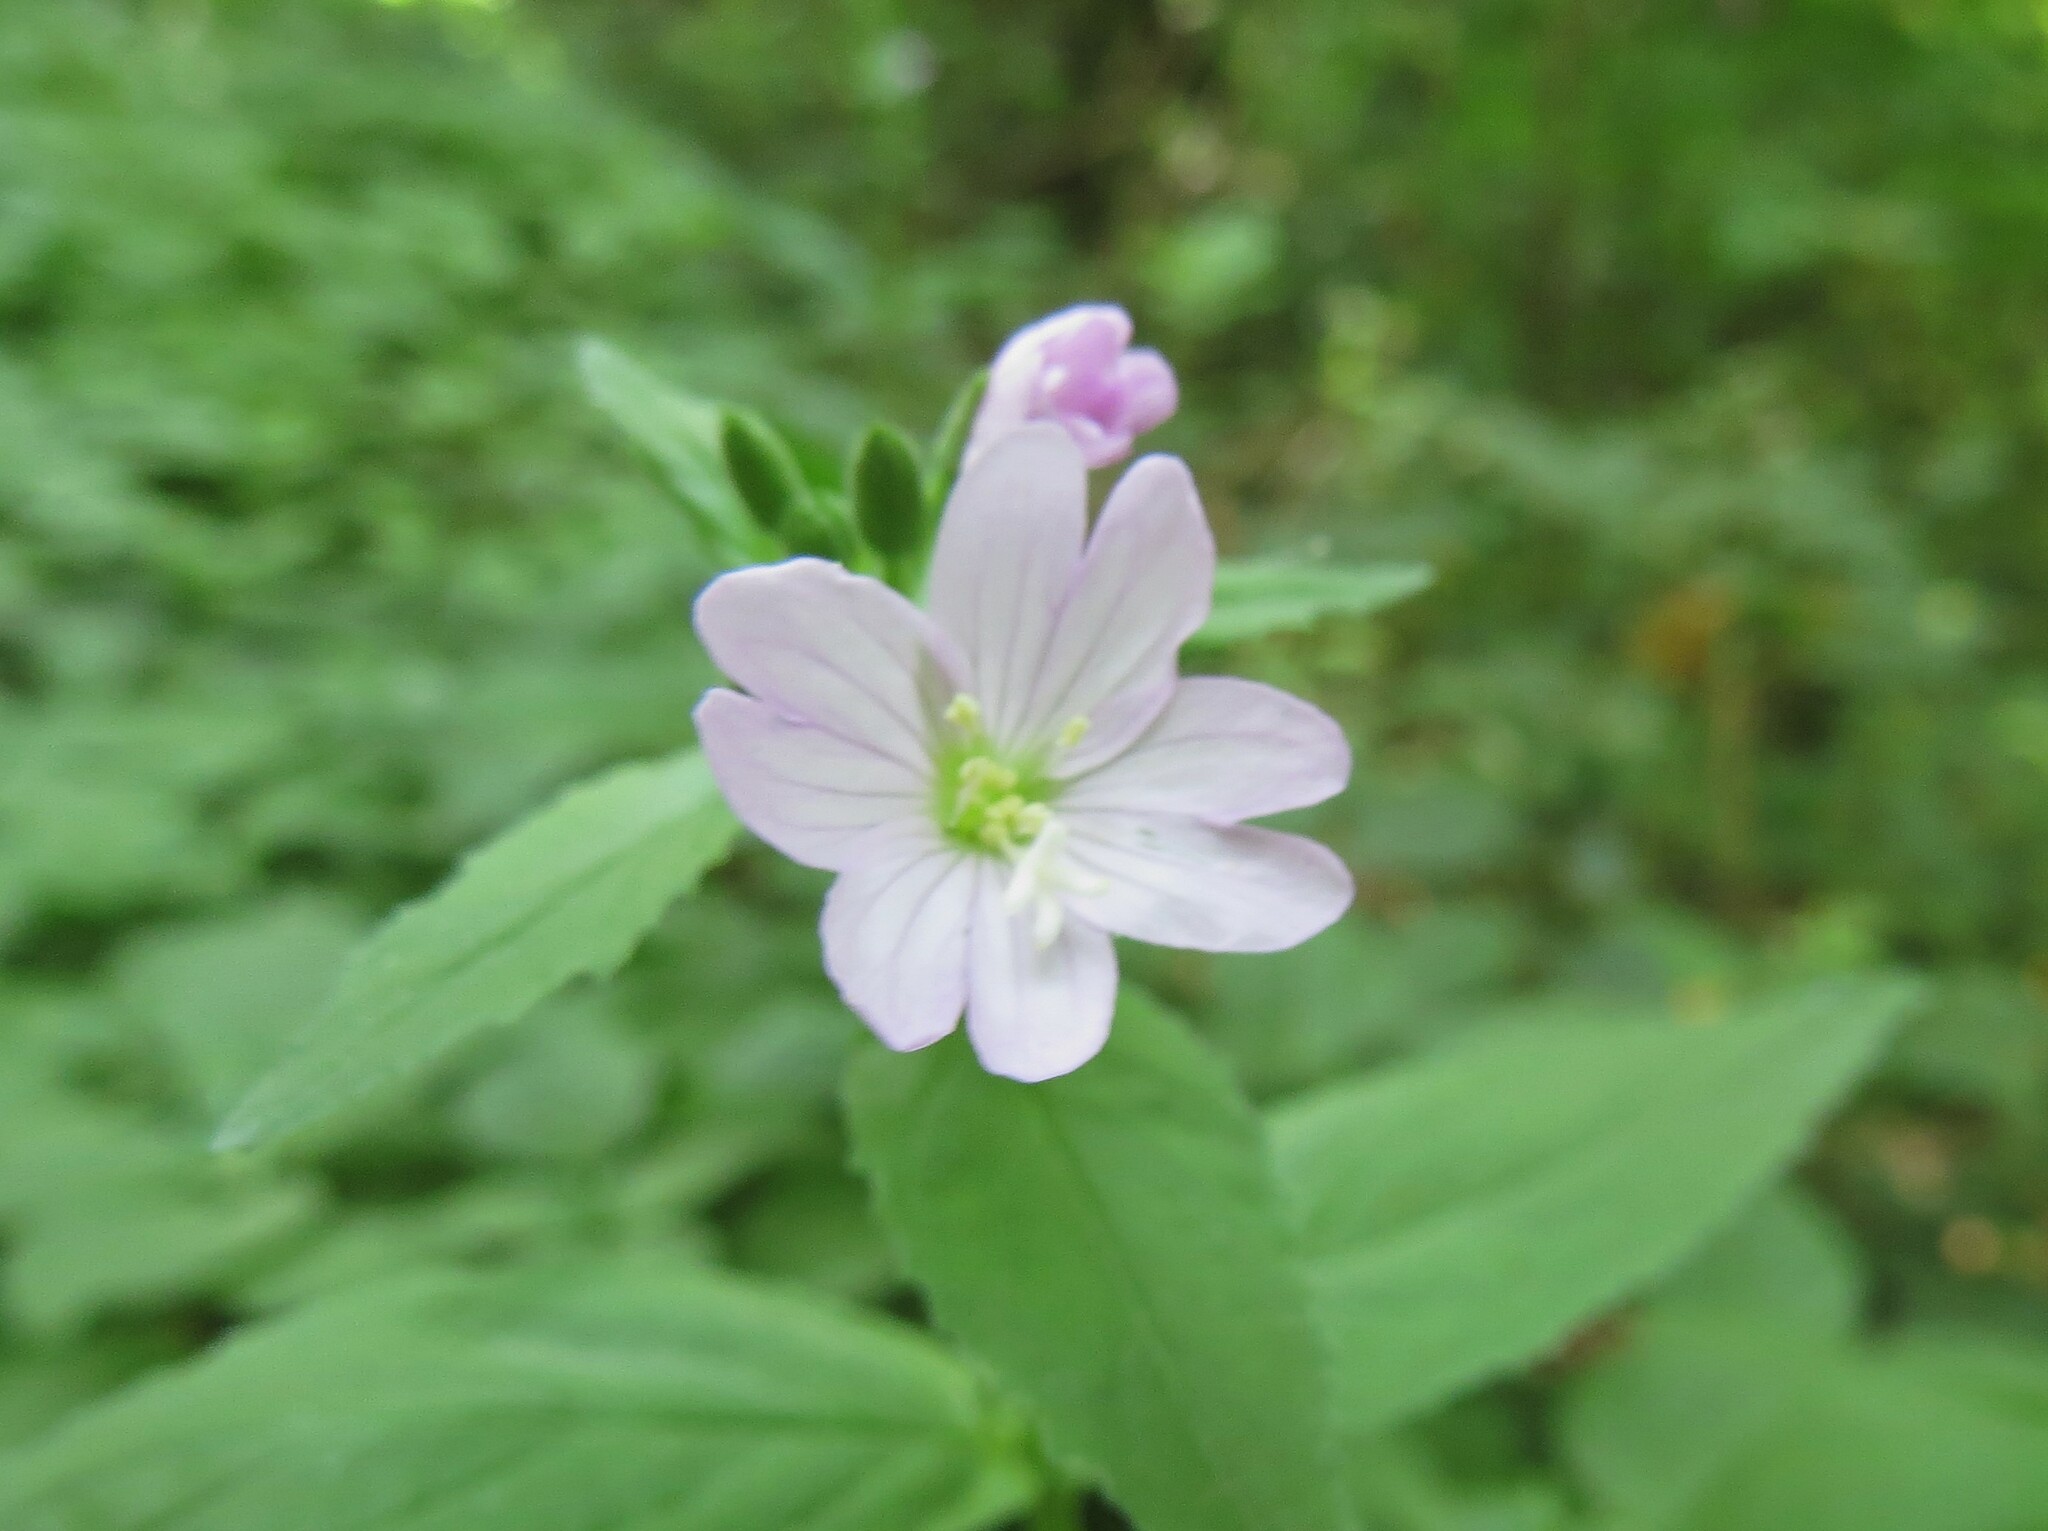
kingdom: Plantae
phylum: Tracheophyta
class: Magnoliopsida
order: Myrtales
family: Onagraceae
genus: Epilobium
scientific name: Epilobium montanum
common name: Broad-leaved willowherb
